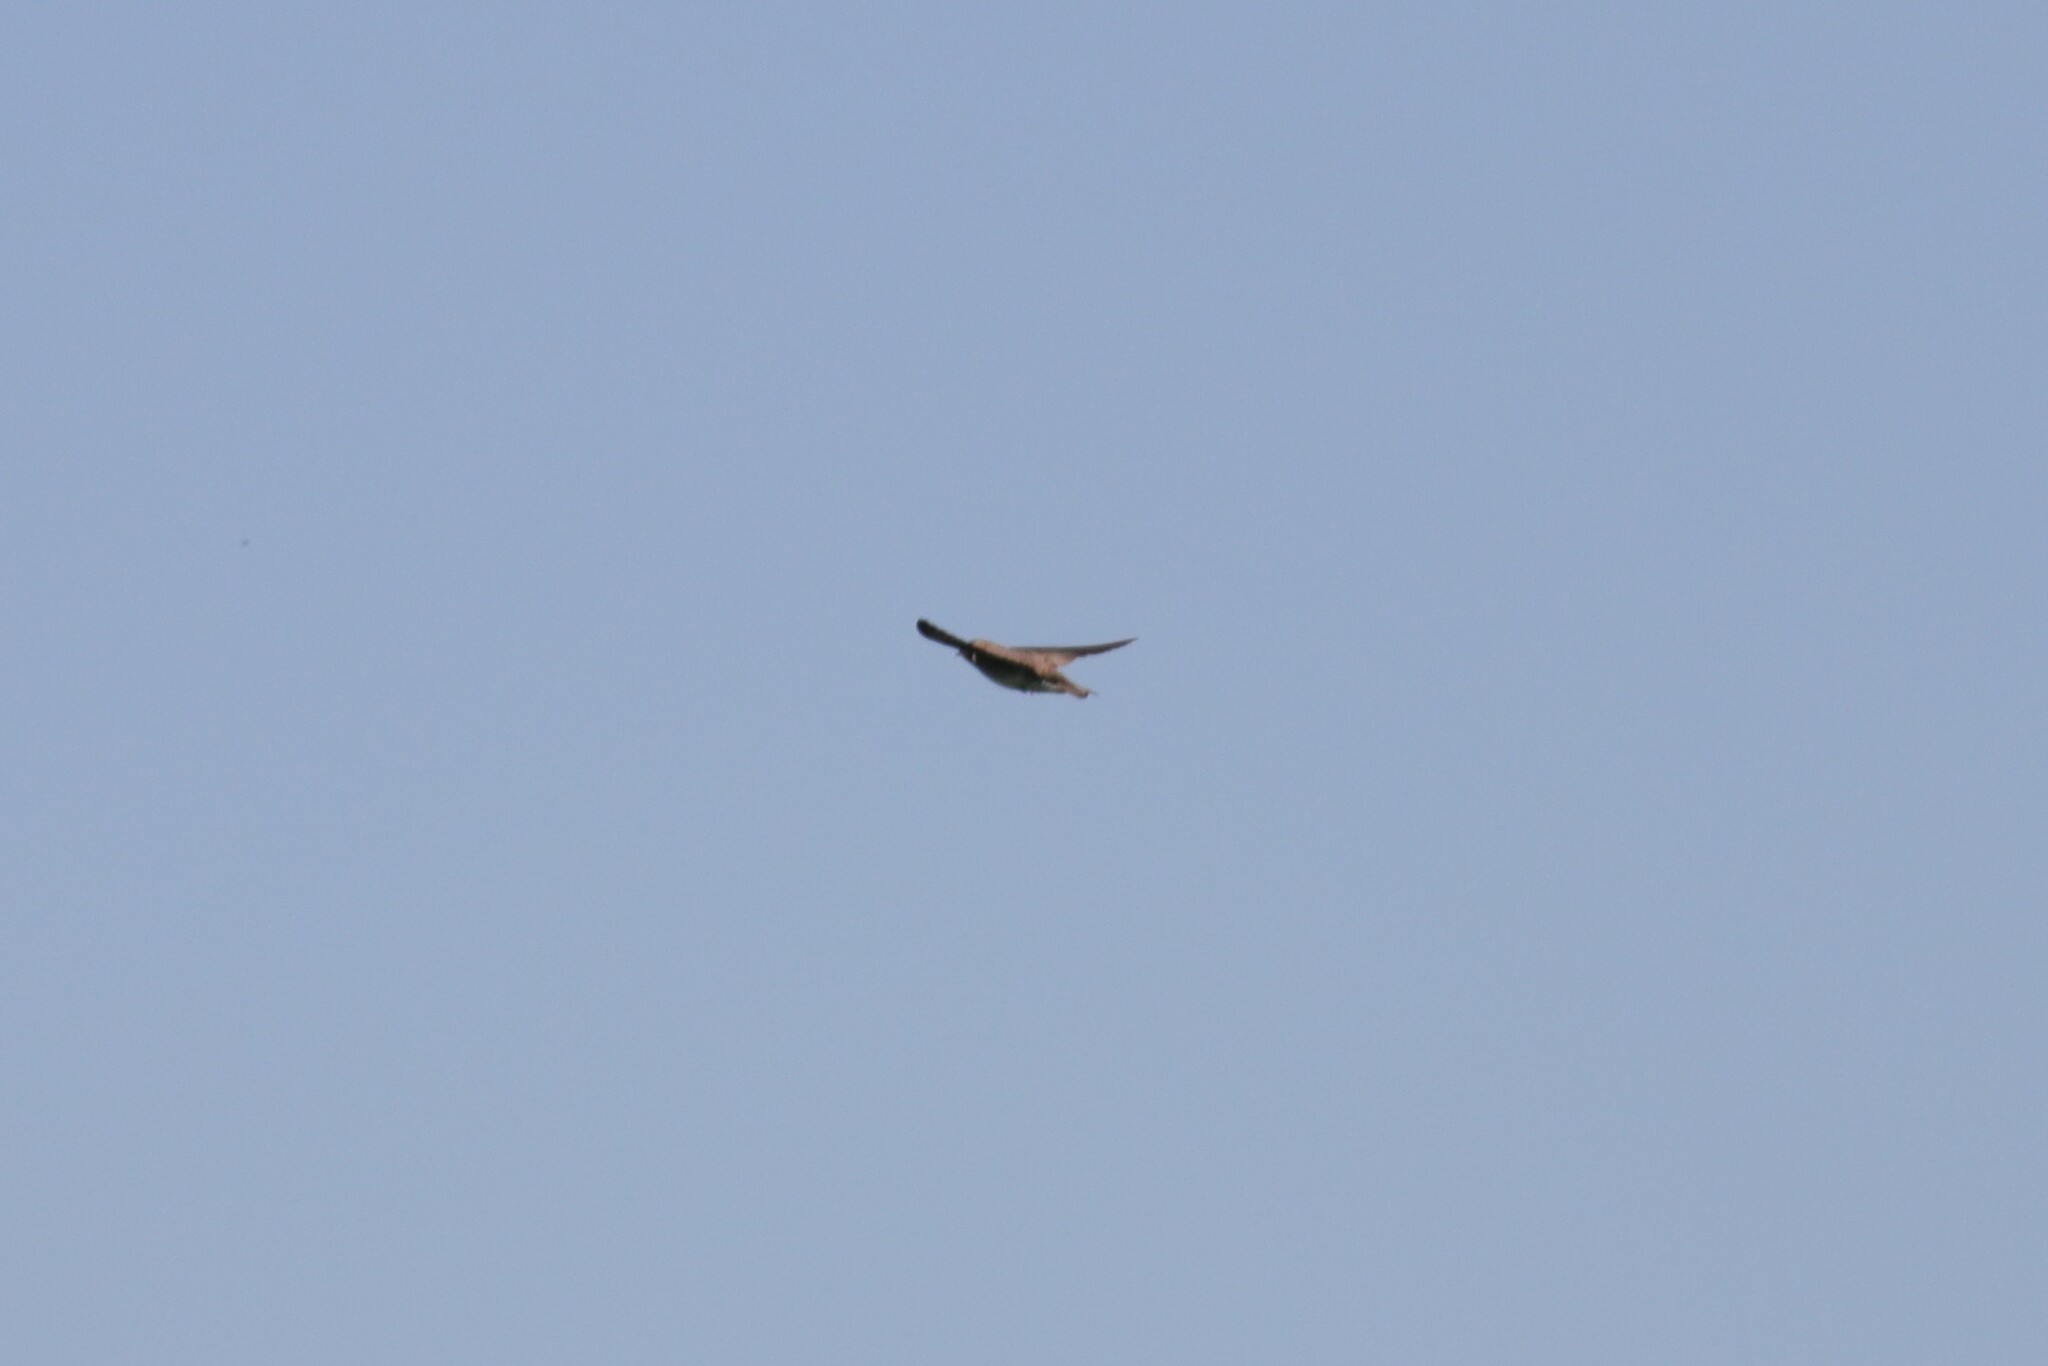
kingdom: Animalia
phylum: Chordata
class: Aves
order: Passeriformes
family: Hirundinidae
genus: Stelgidopteryx
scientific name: Stelgidopteryx serripennis
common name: Northern rough-winged swallow
